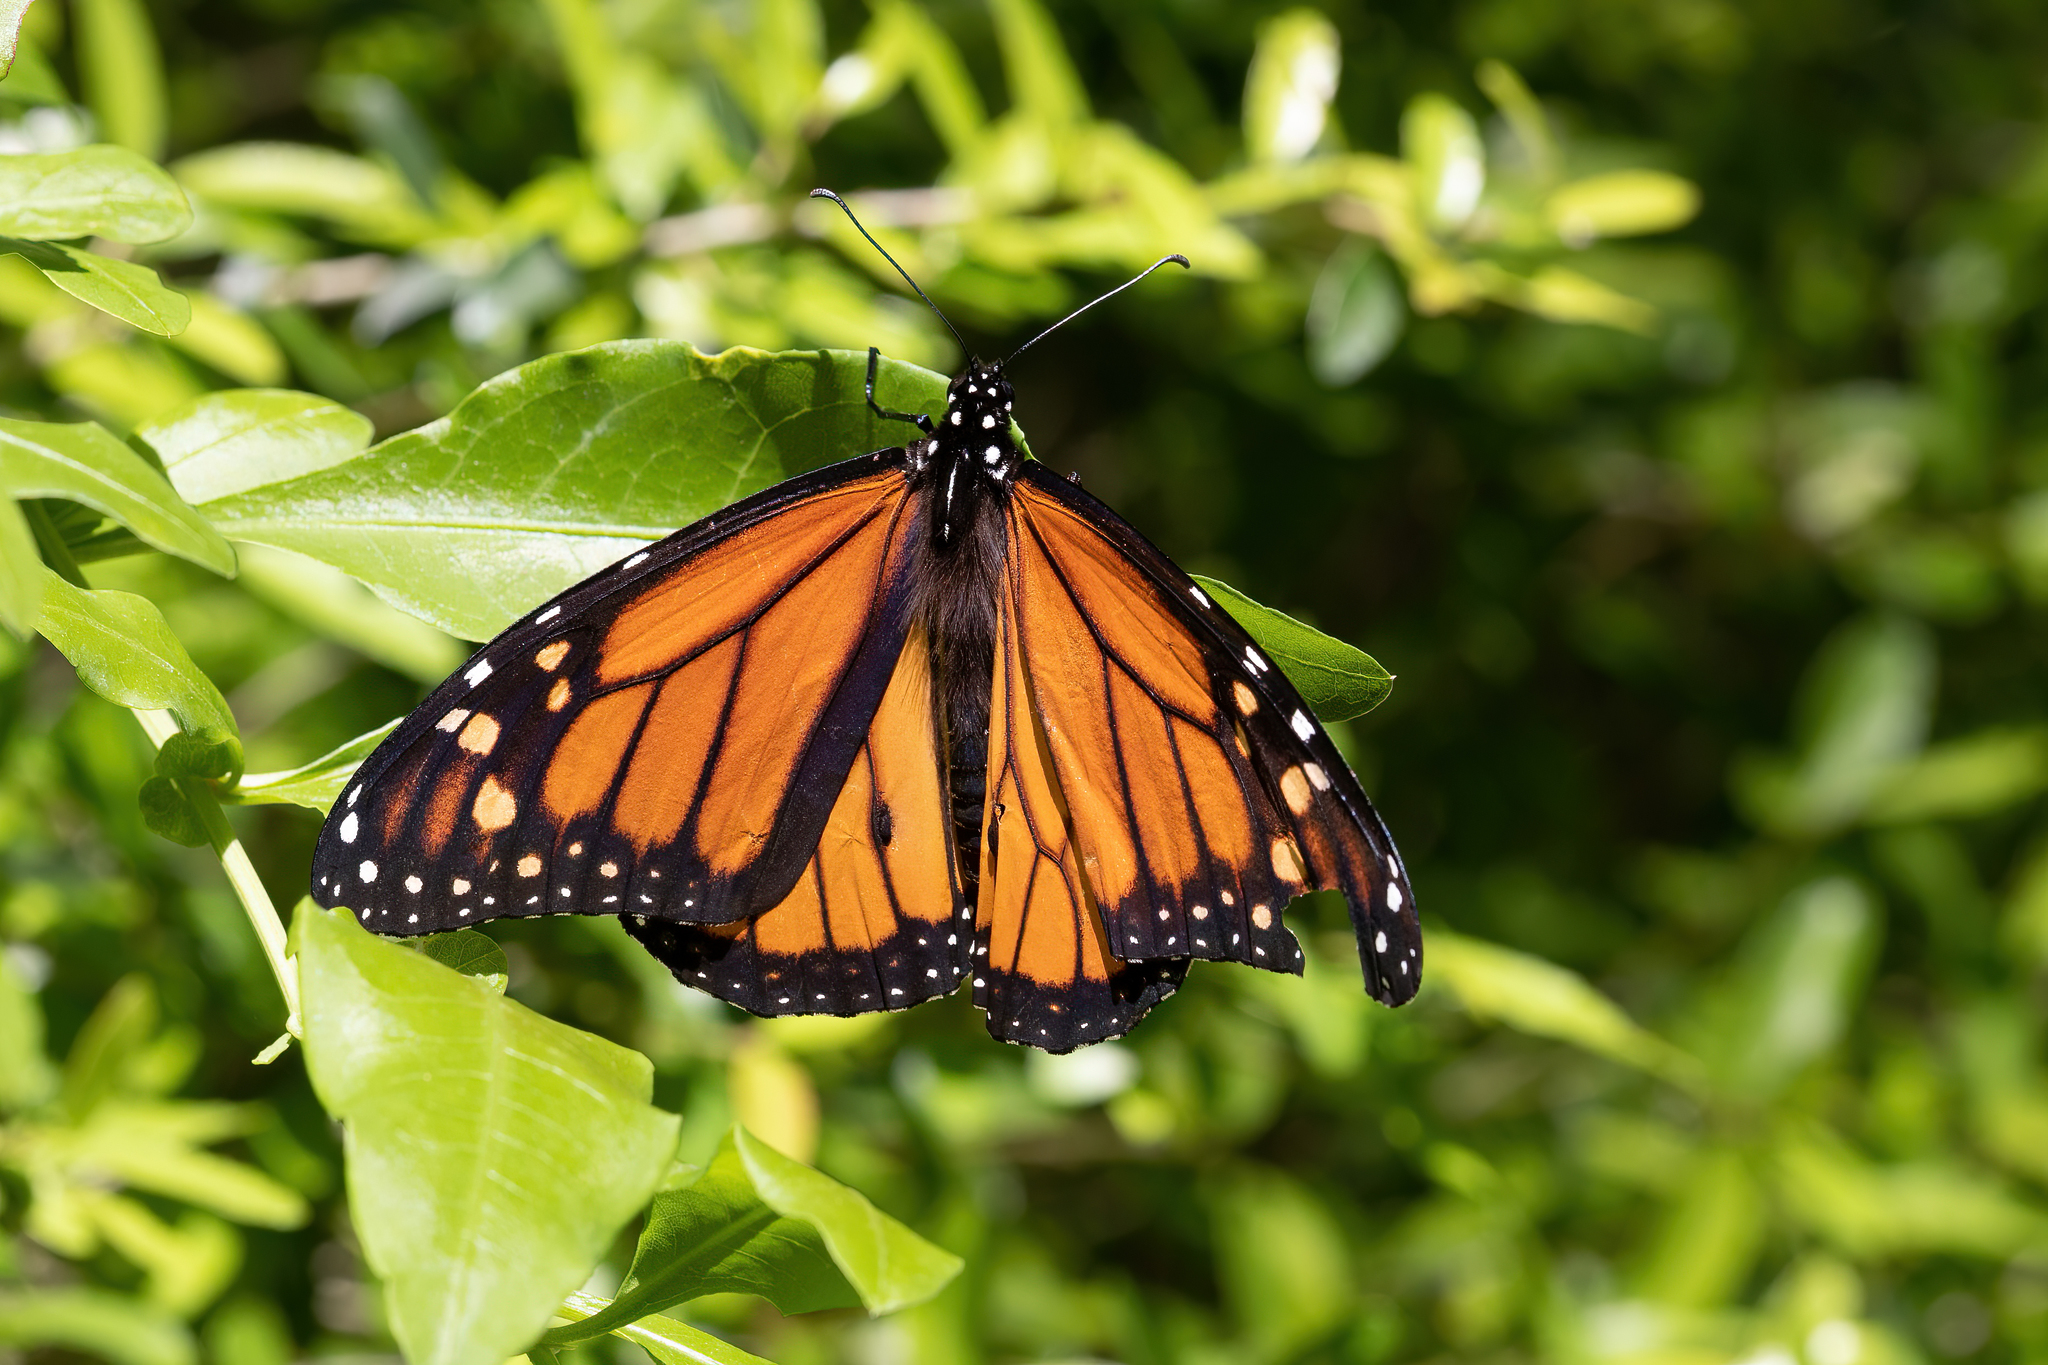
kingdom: Animalia
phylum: Arthropoda
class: Insecta
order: Lepidoptera
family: Nymphalidae
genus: Danaus
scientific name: Danaus plexippus
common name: Monarch
